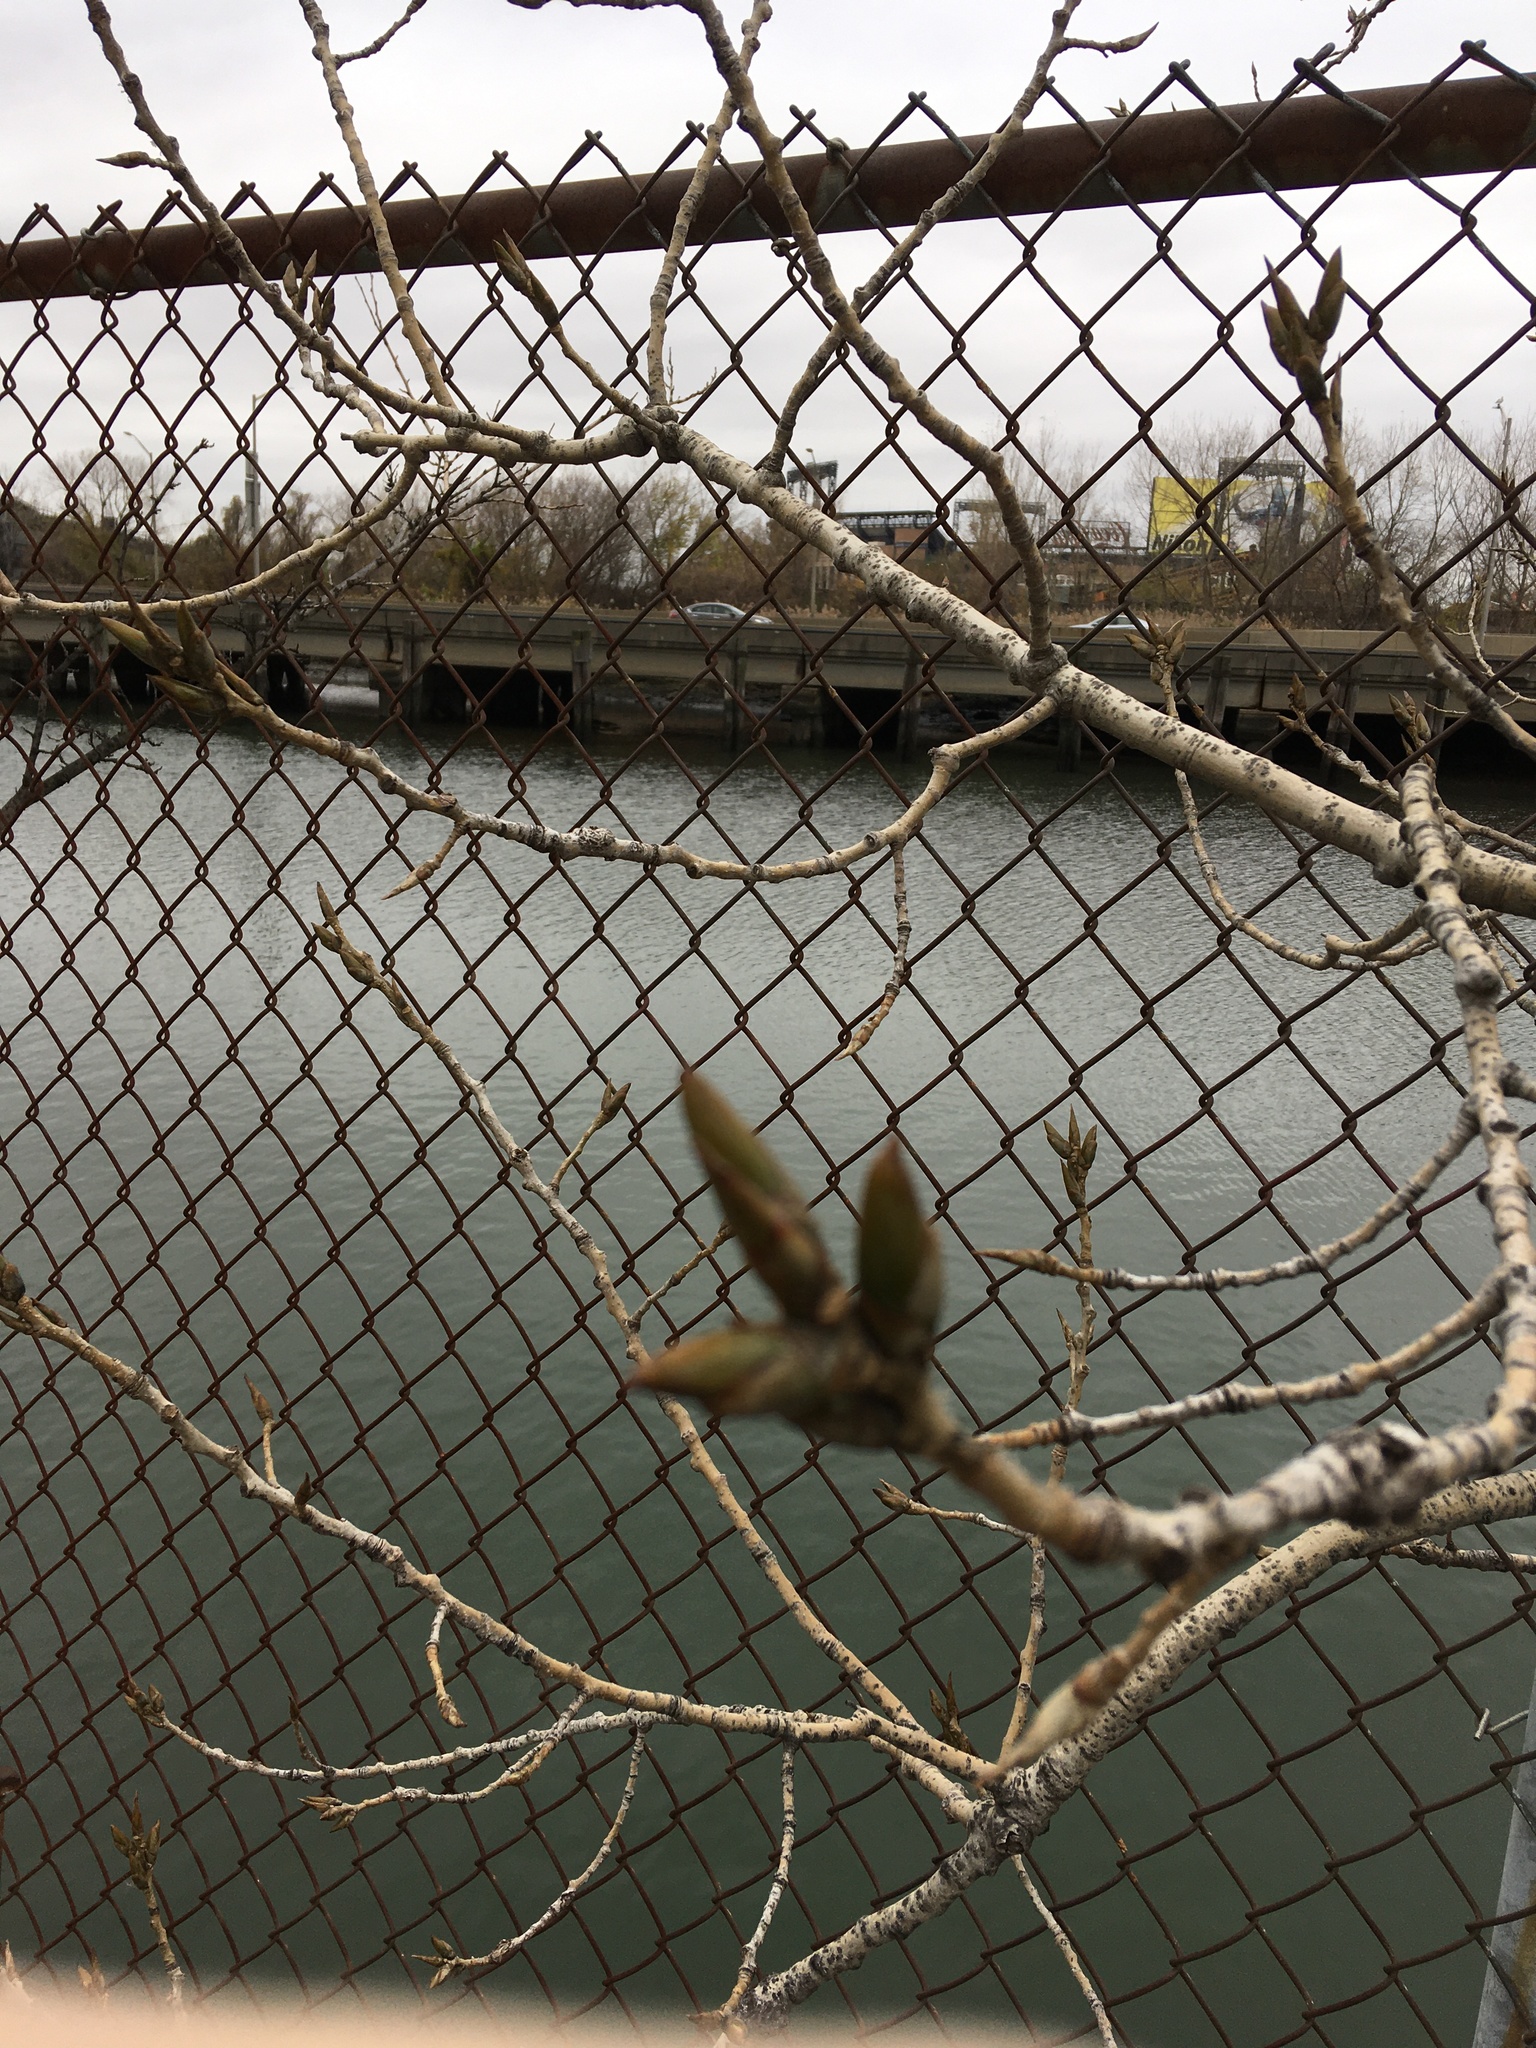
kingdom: Plantae
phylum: Tracheophyta
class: Magnoliopsida
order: Malpighiales
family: Salicaceae
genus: Populus
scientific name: Populus deltoides
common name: Eastern cottonwood
